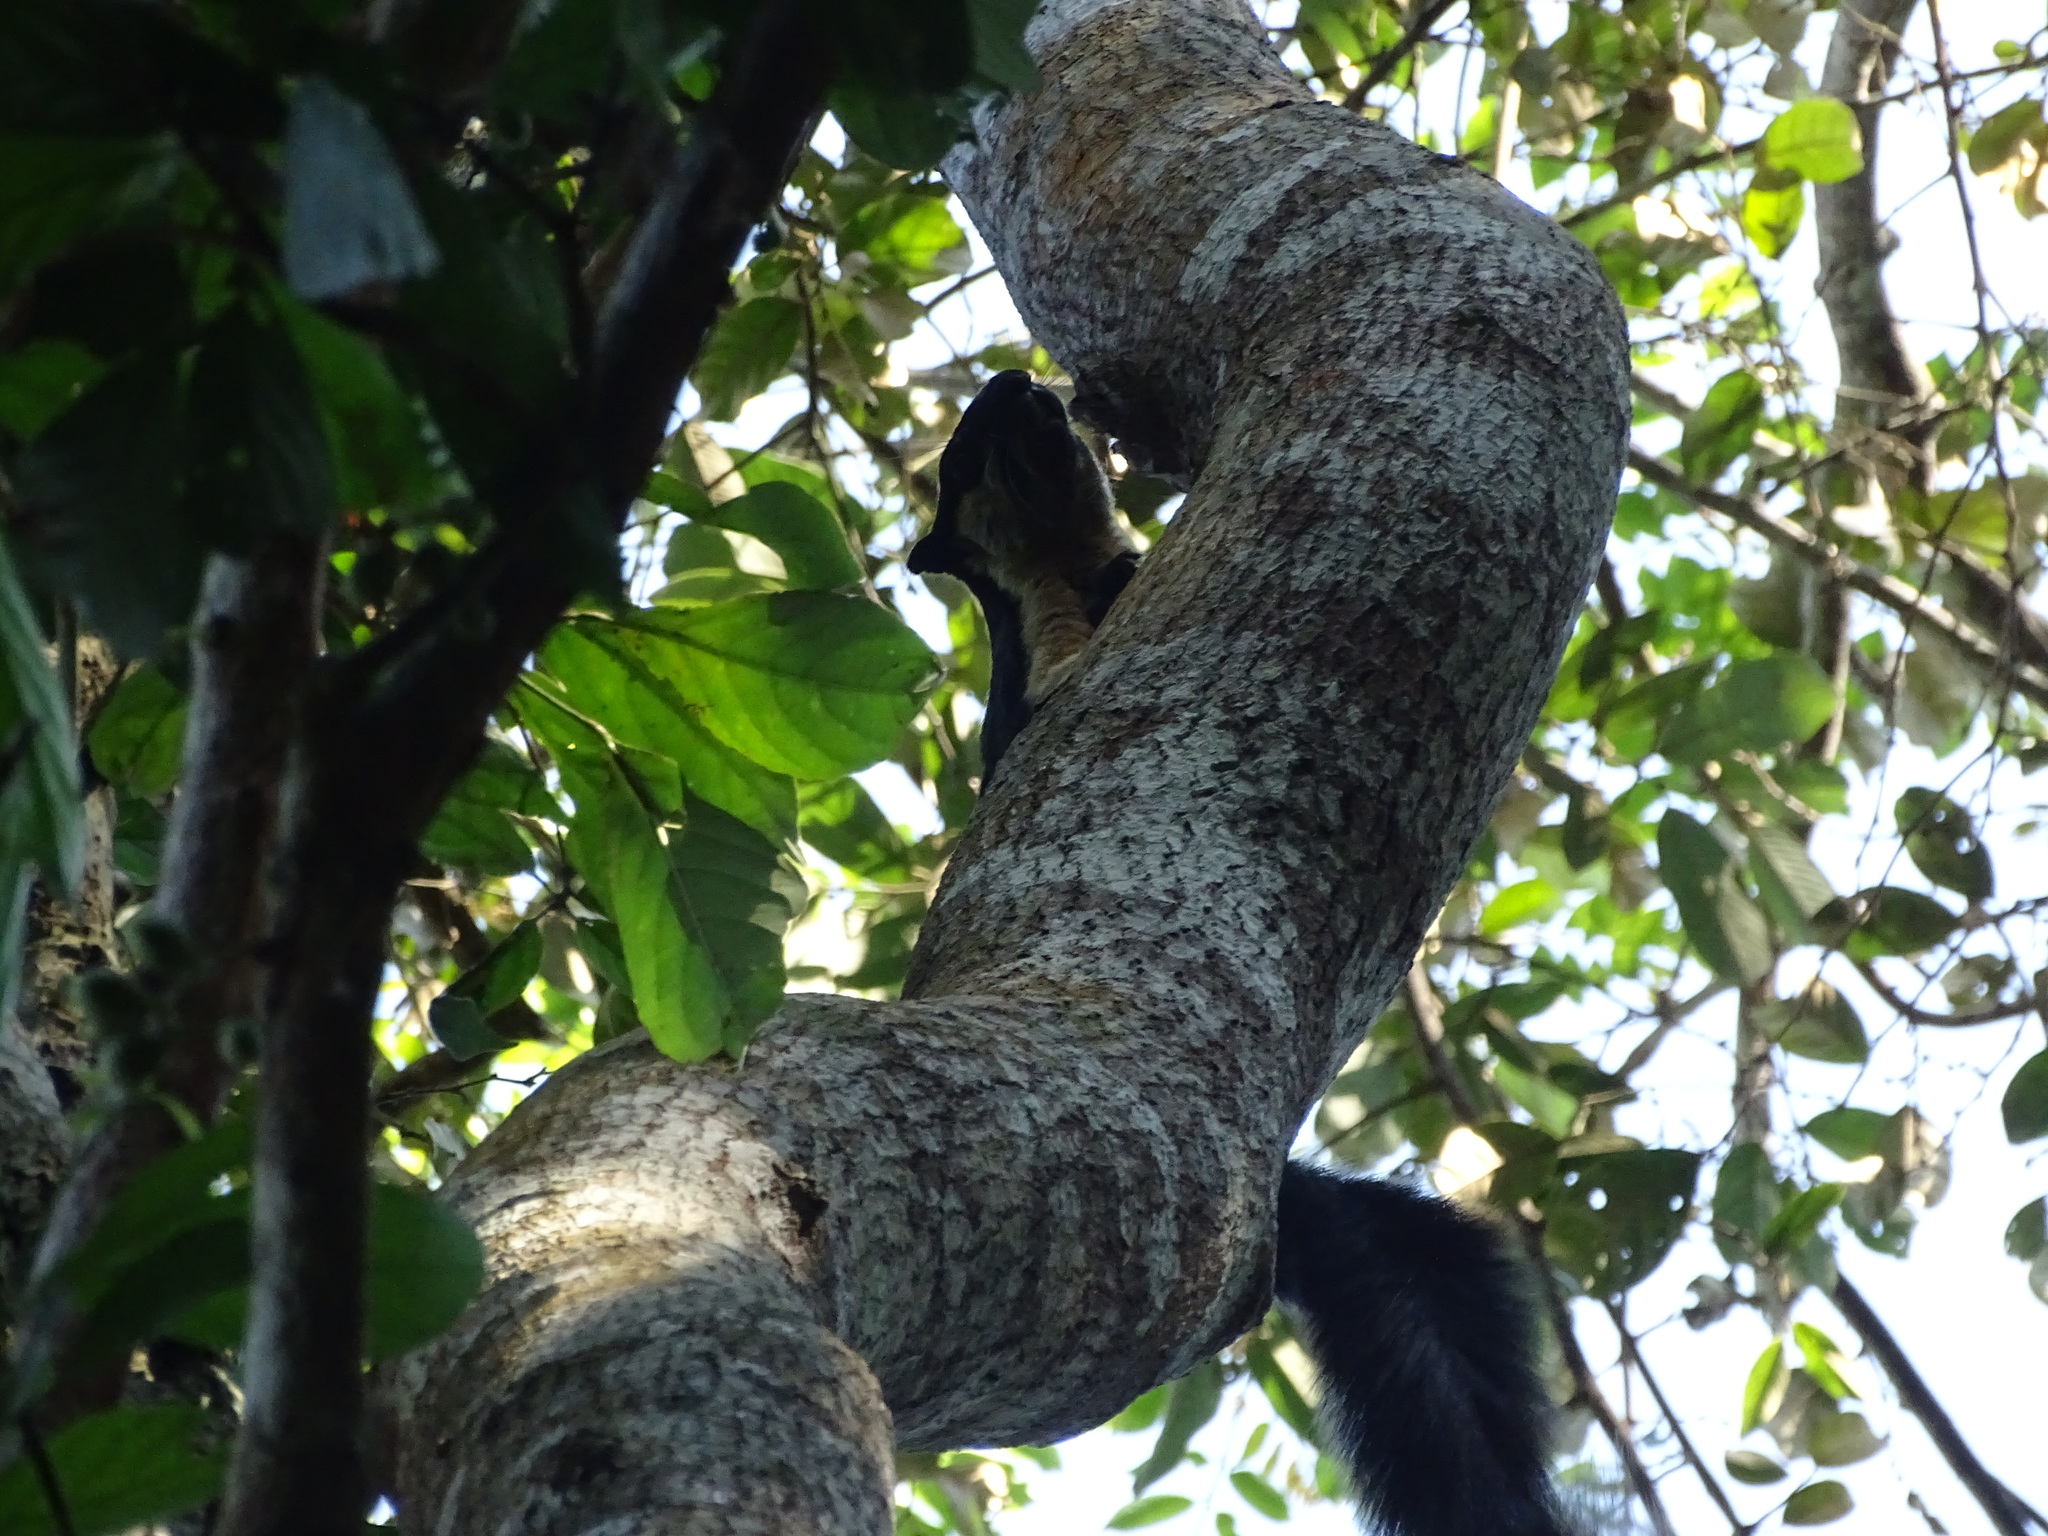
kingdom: Animalia
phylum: Chordata
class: Mammalia
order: Rodentia
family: Sciuridae
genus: Ratufa
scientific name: Ratufa bicolor
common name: Black giant squirrel
